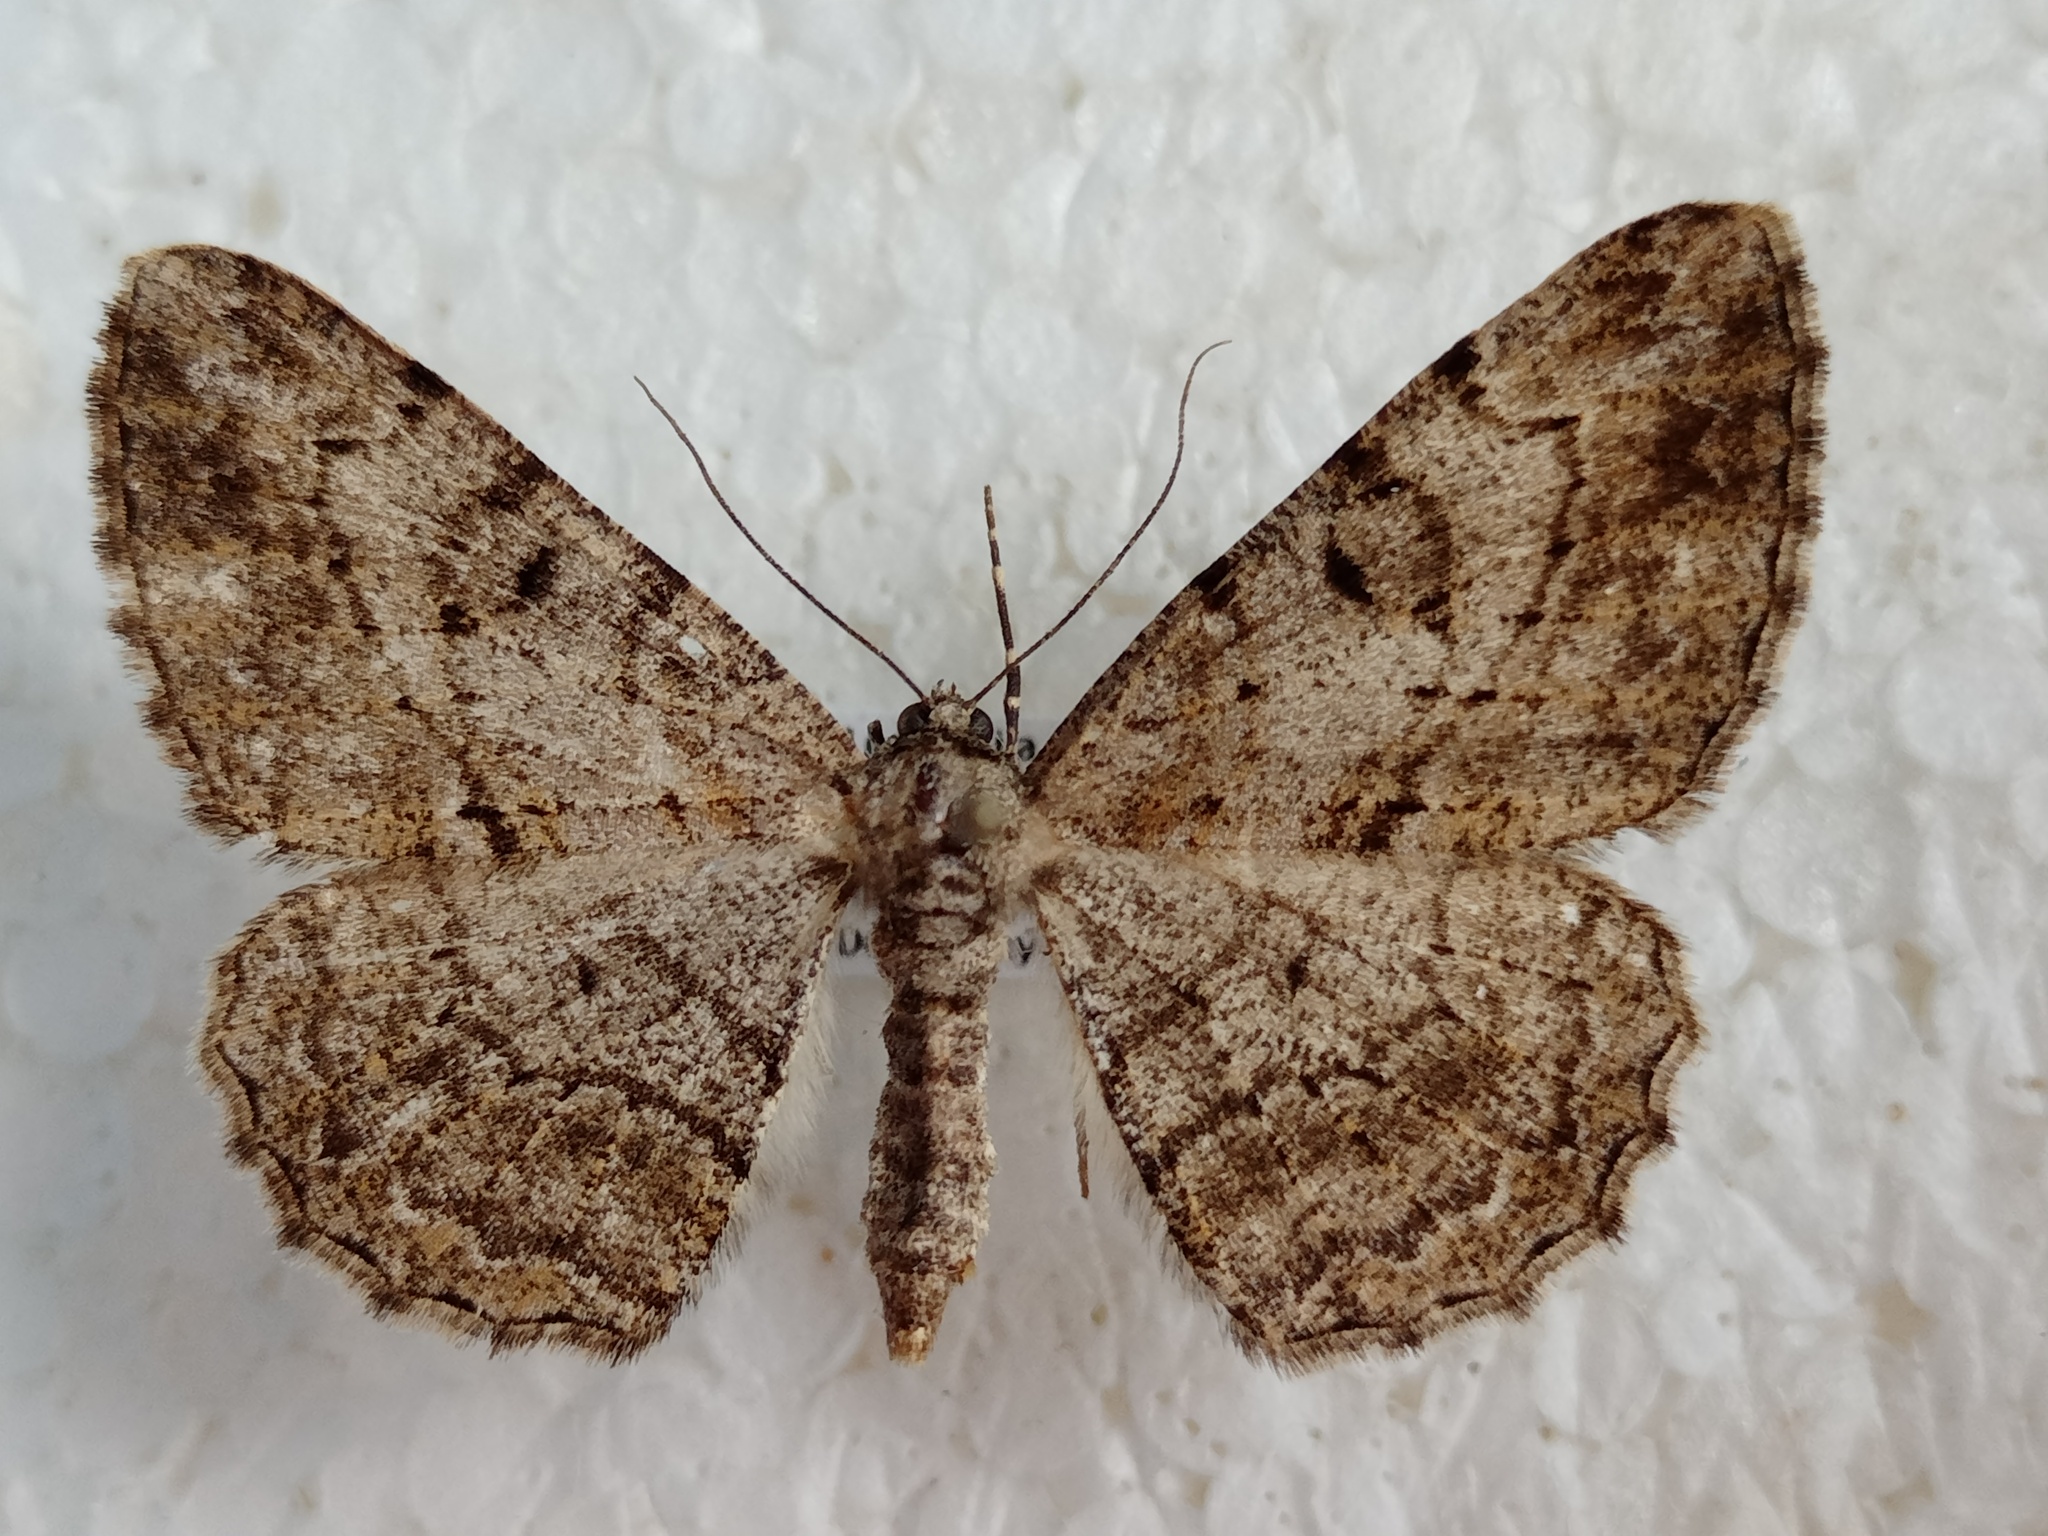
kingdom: Animalia
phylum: Arthropoda
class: Insecta
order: Lepidoptera
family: Geometridae
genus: Peribatodes
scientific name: Peribatodes rhomboidaria
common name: Willow beauty
